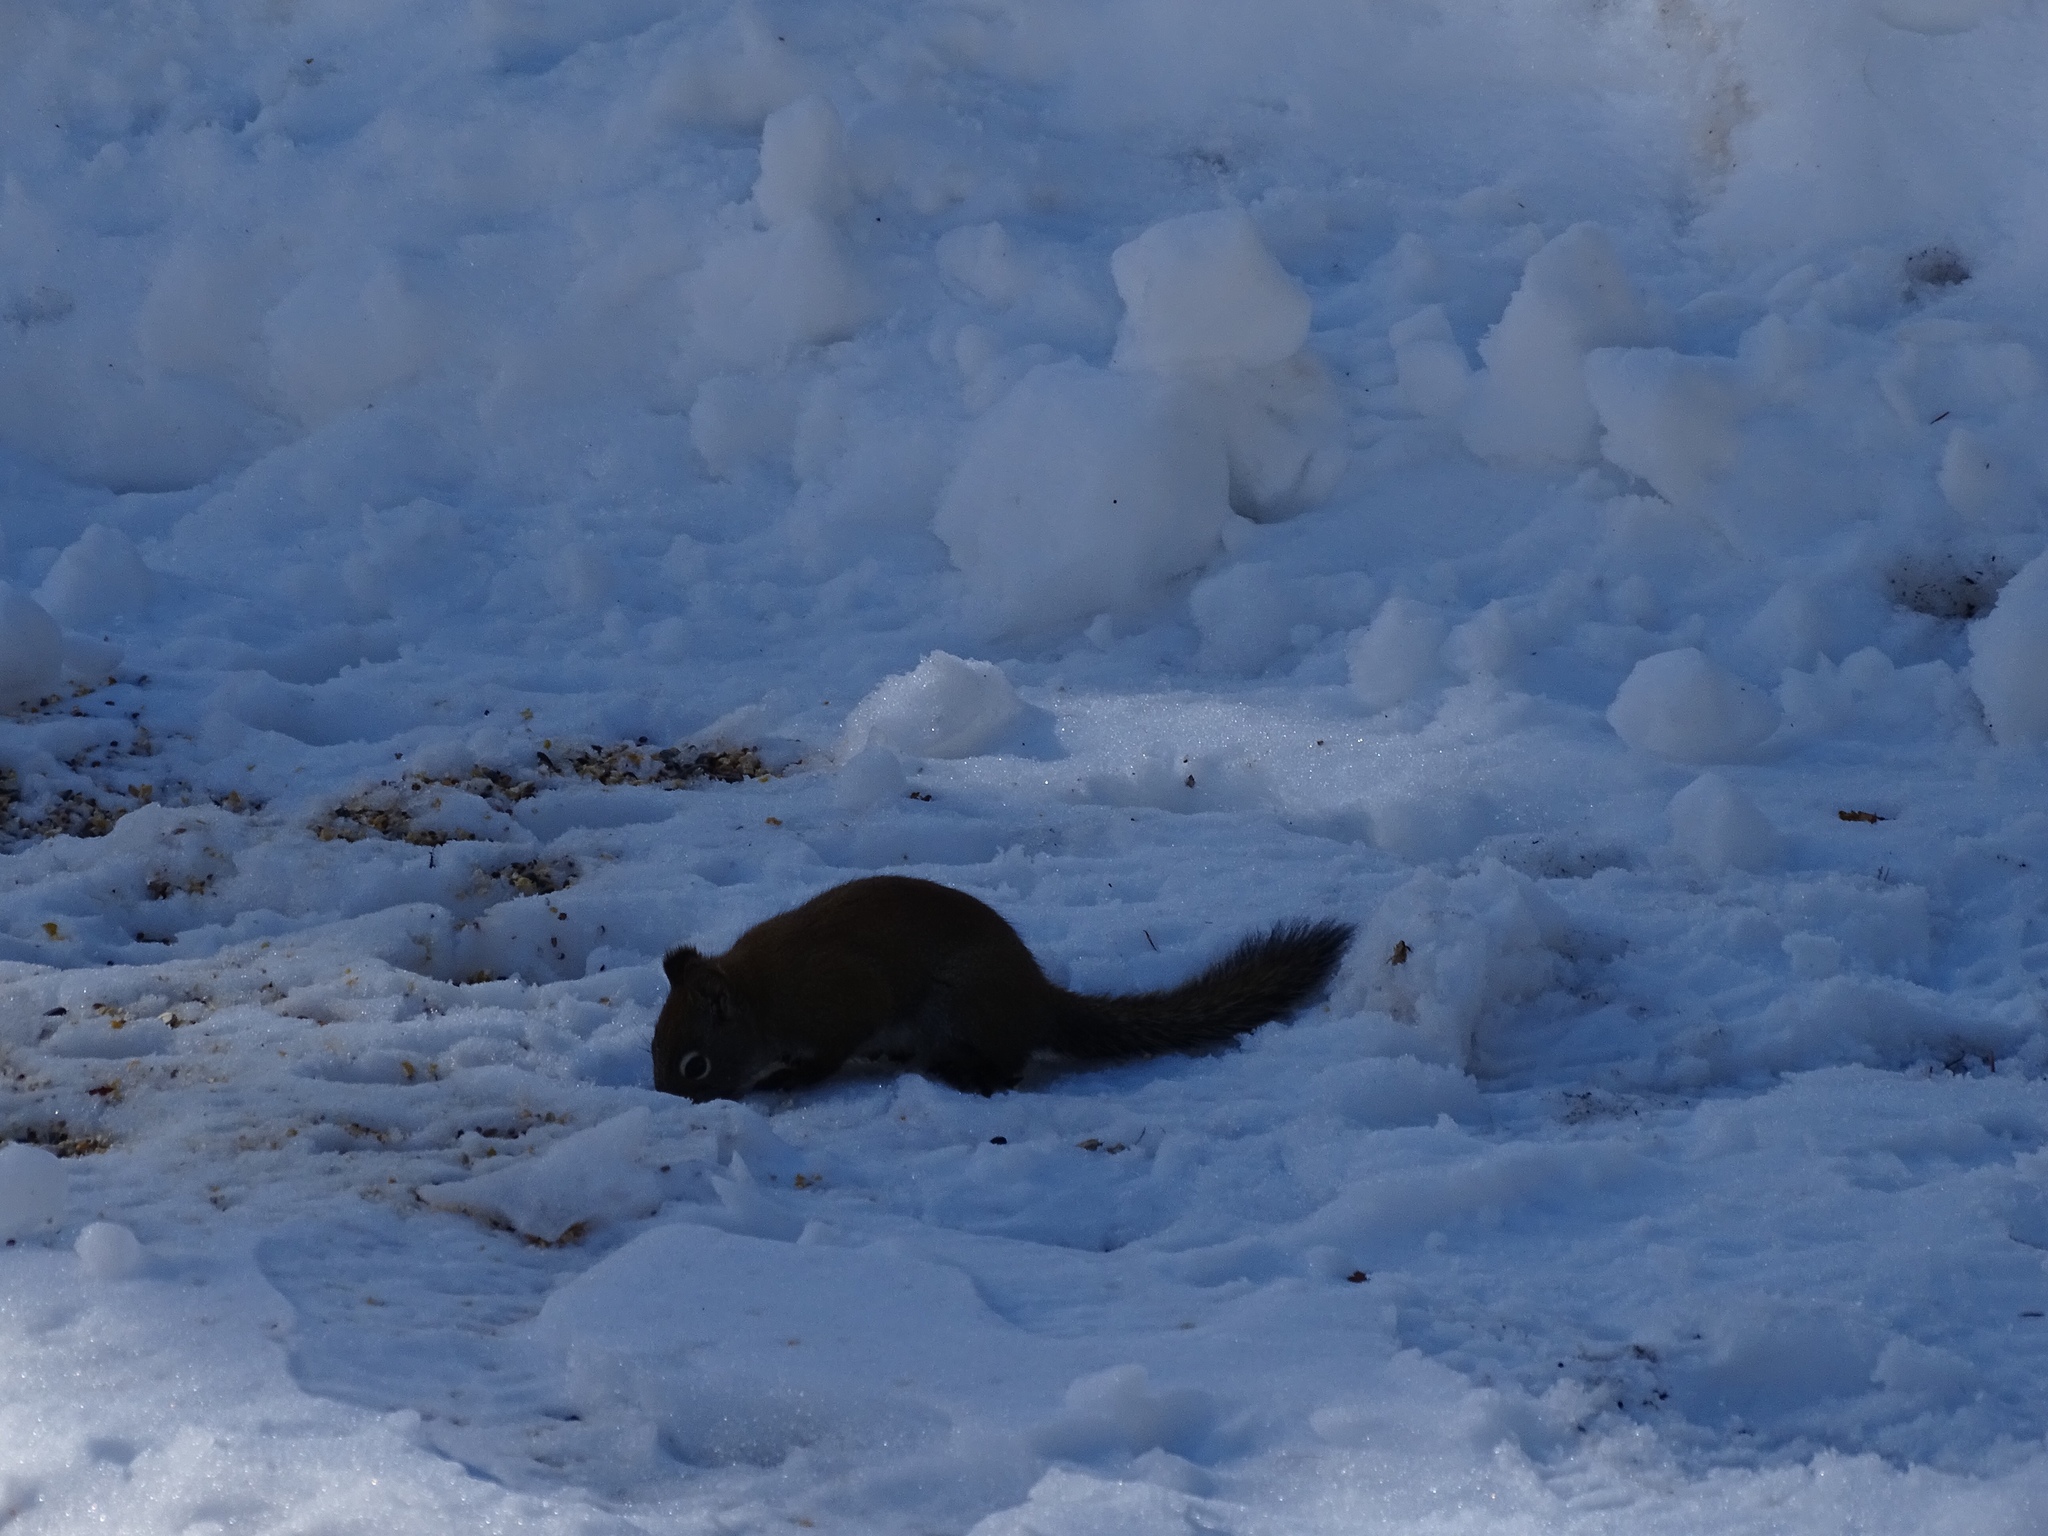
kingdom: Animalia
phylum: Chordata
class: Mammalia
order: Rodentia
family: Sciuridae
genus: Tamiasciurus
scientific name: Tamiasciurus hudsonicus
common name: Red squirrel
